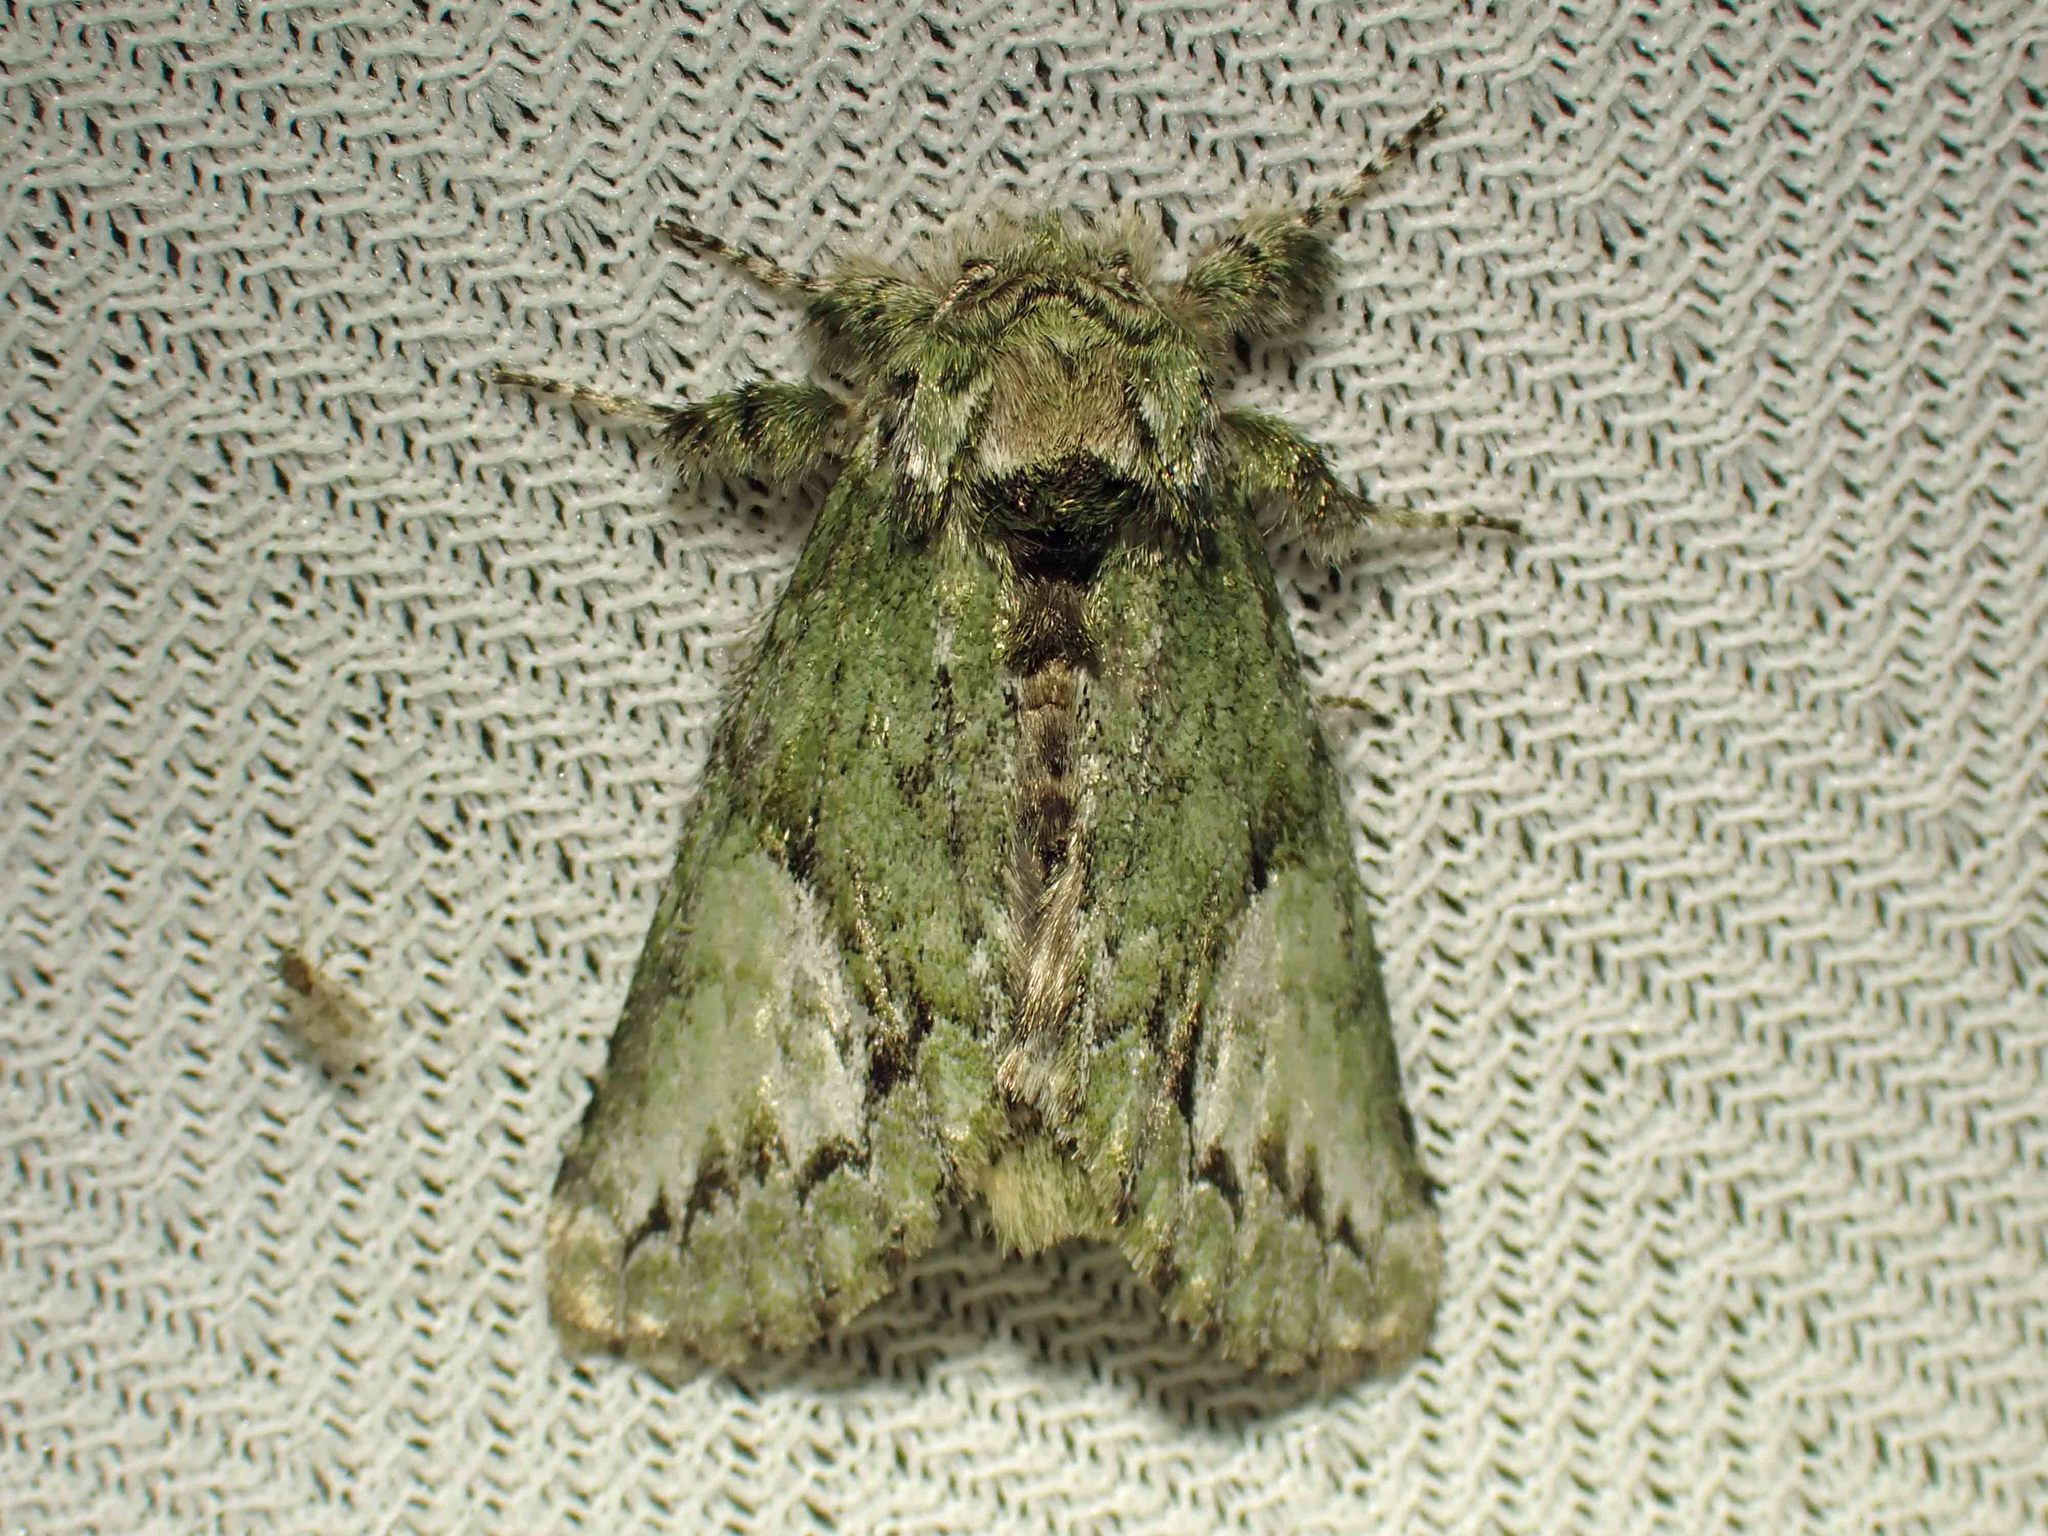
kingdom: Animalia
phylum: Arthropoda
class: Insecta
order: Lepidoptera
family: Notodontidae
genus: Heterocampa
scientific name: Heterocampa
